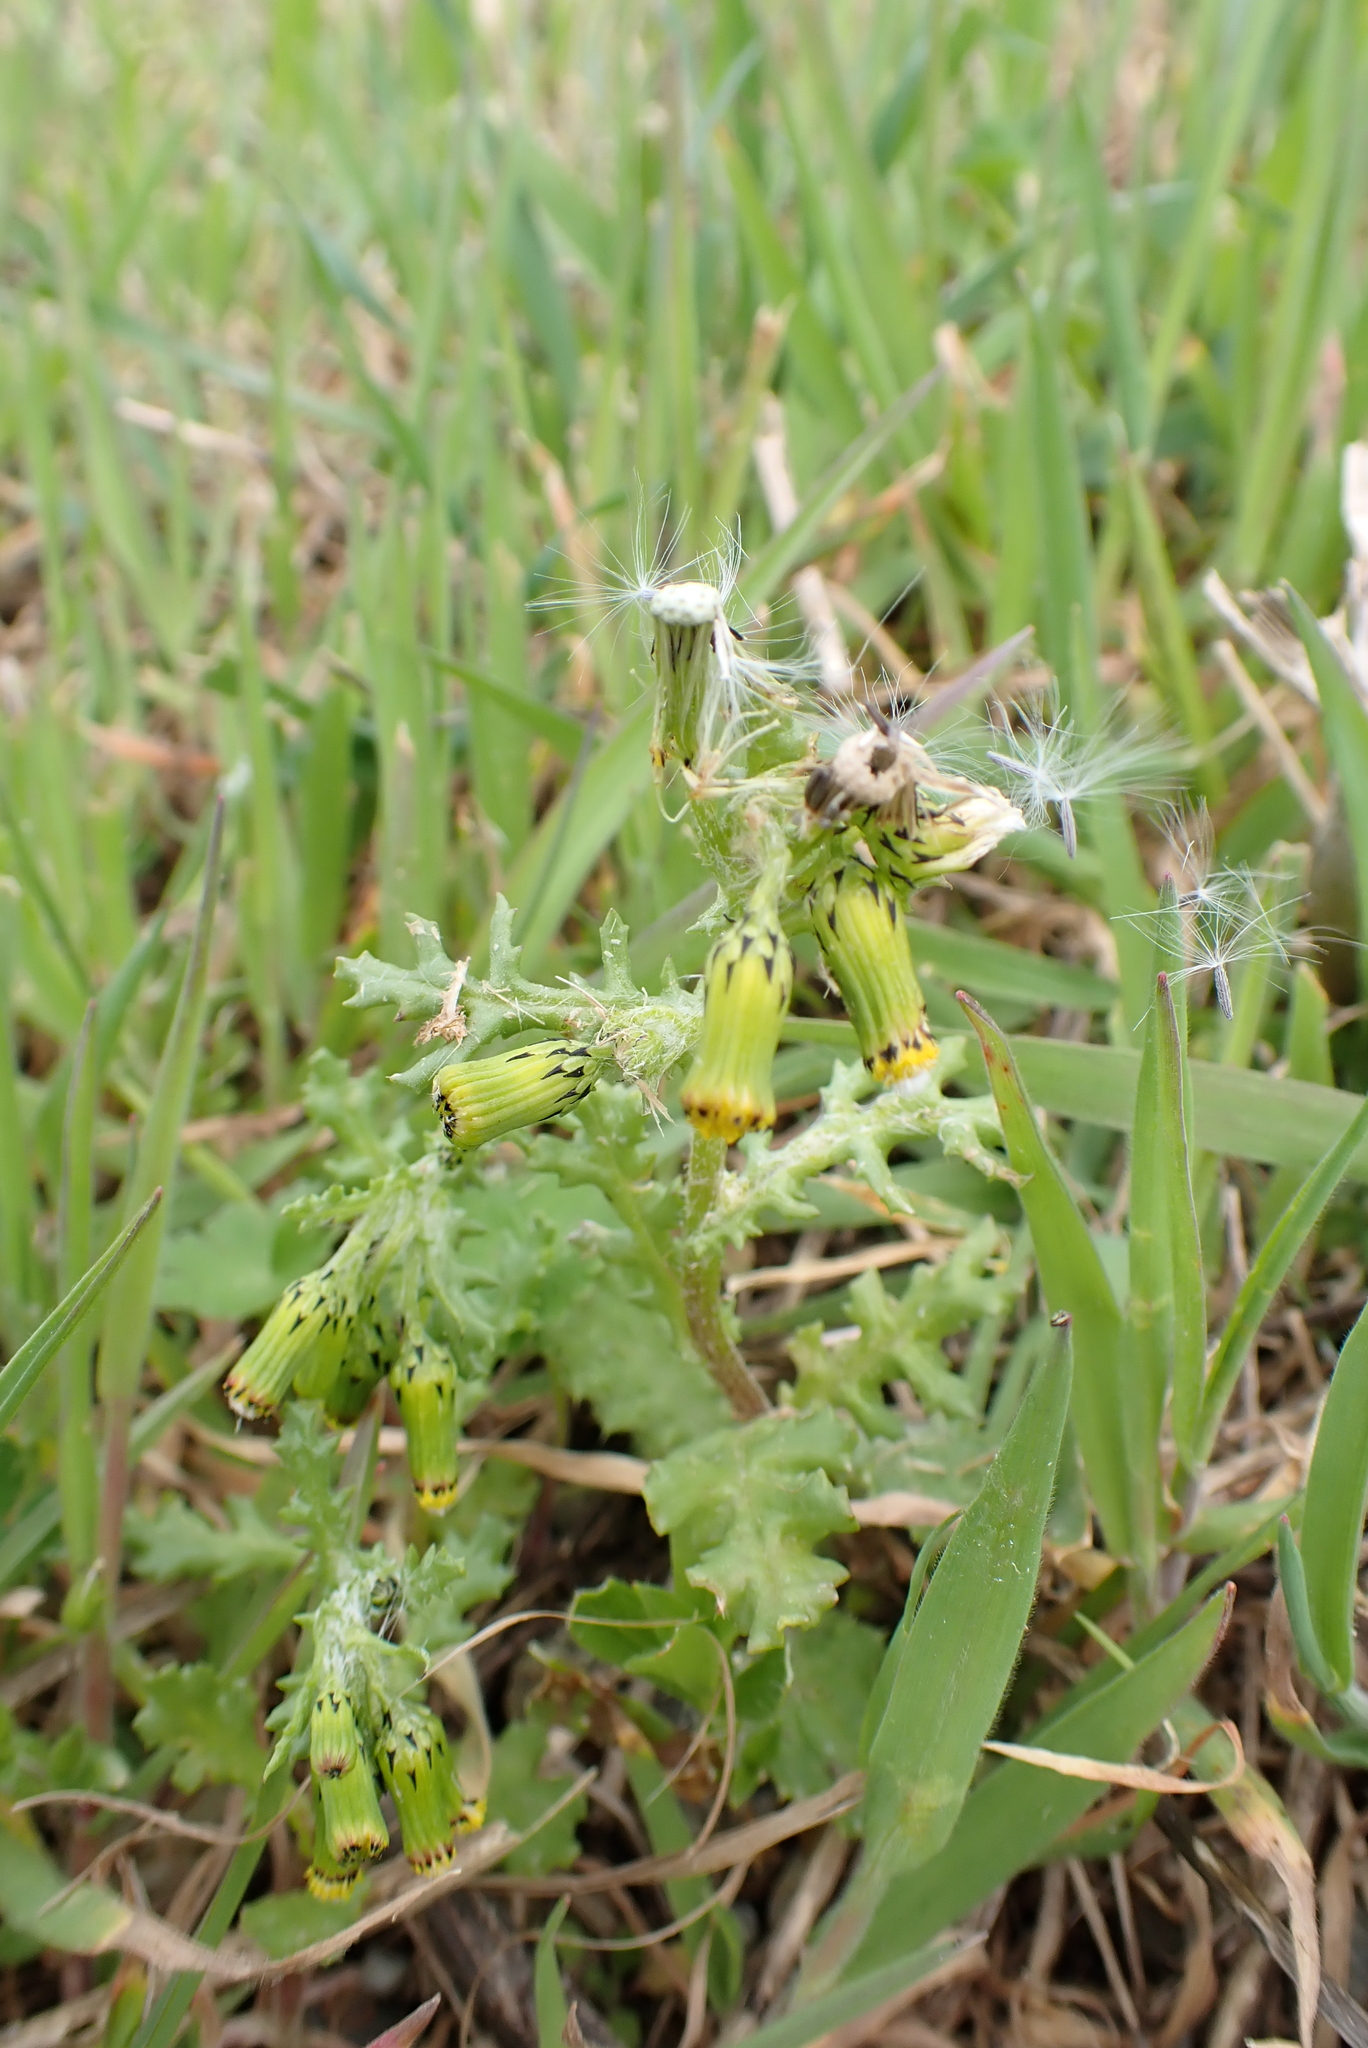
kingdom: Plantae
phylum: Tracheophyta
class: Magnoliopsida
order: Asterales
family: Asteraceae
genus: Senecio
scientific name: Senecio vulgaris
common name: Old-man-in-the-spring
